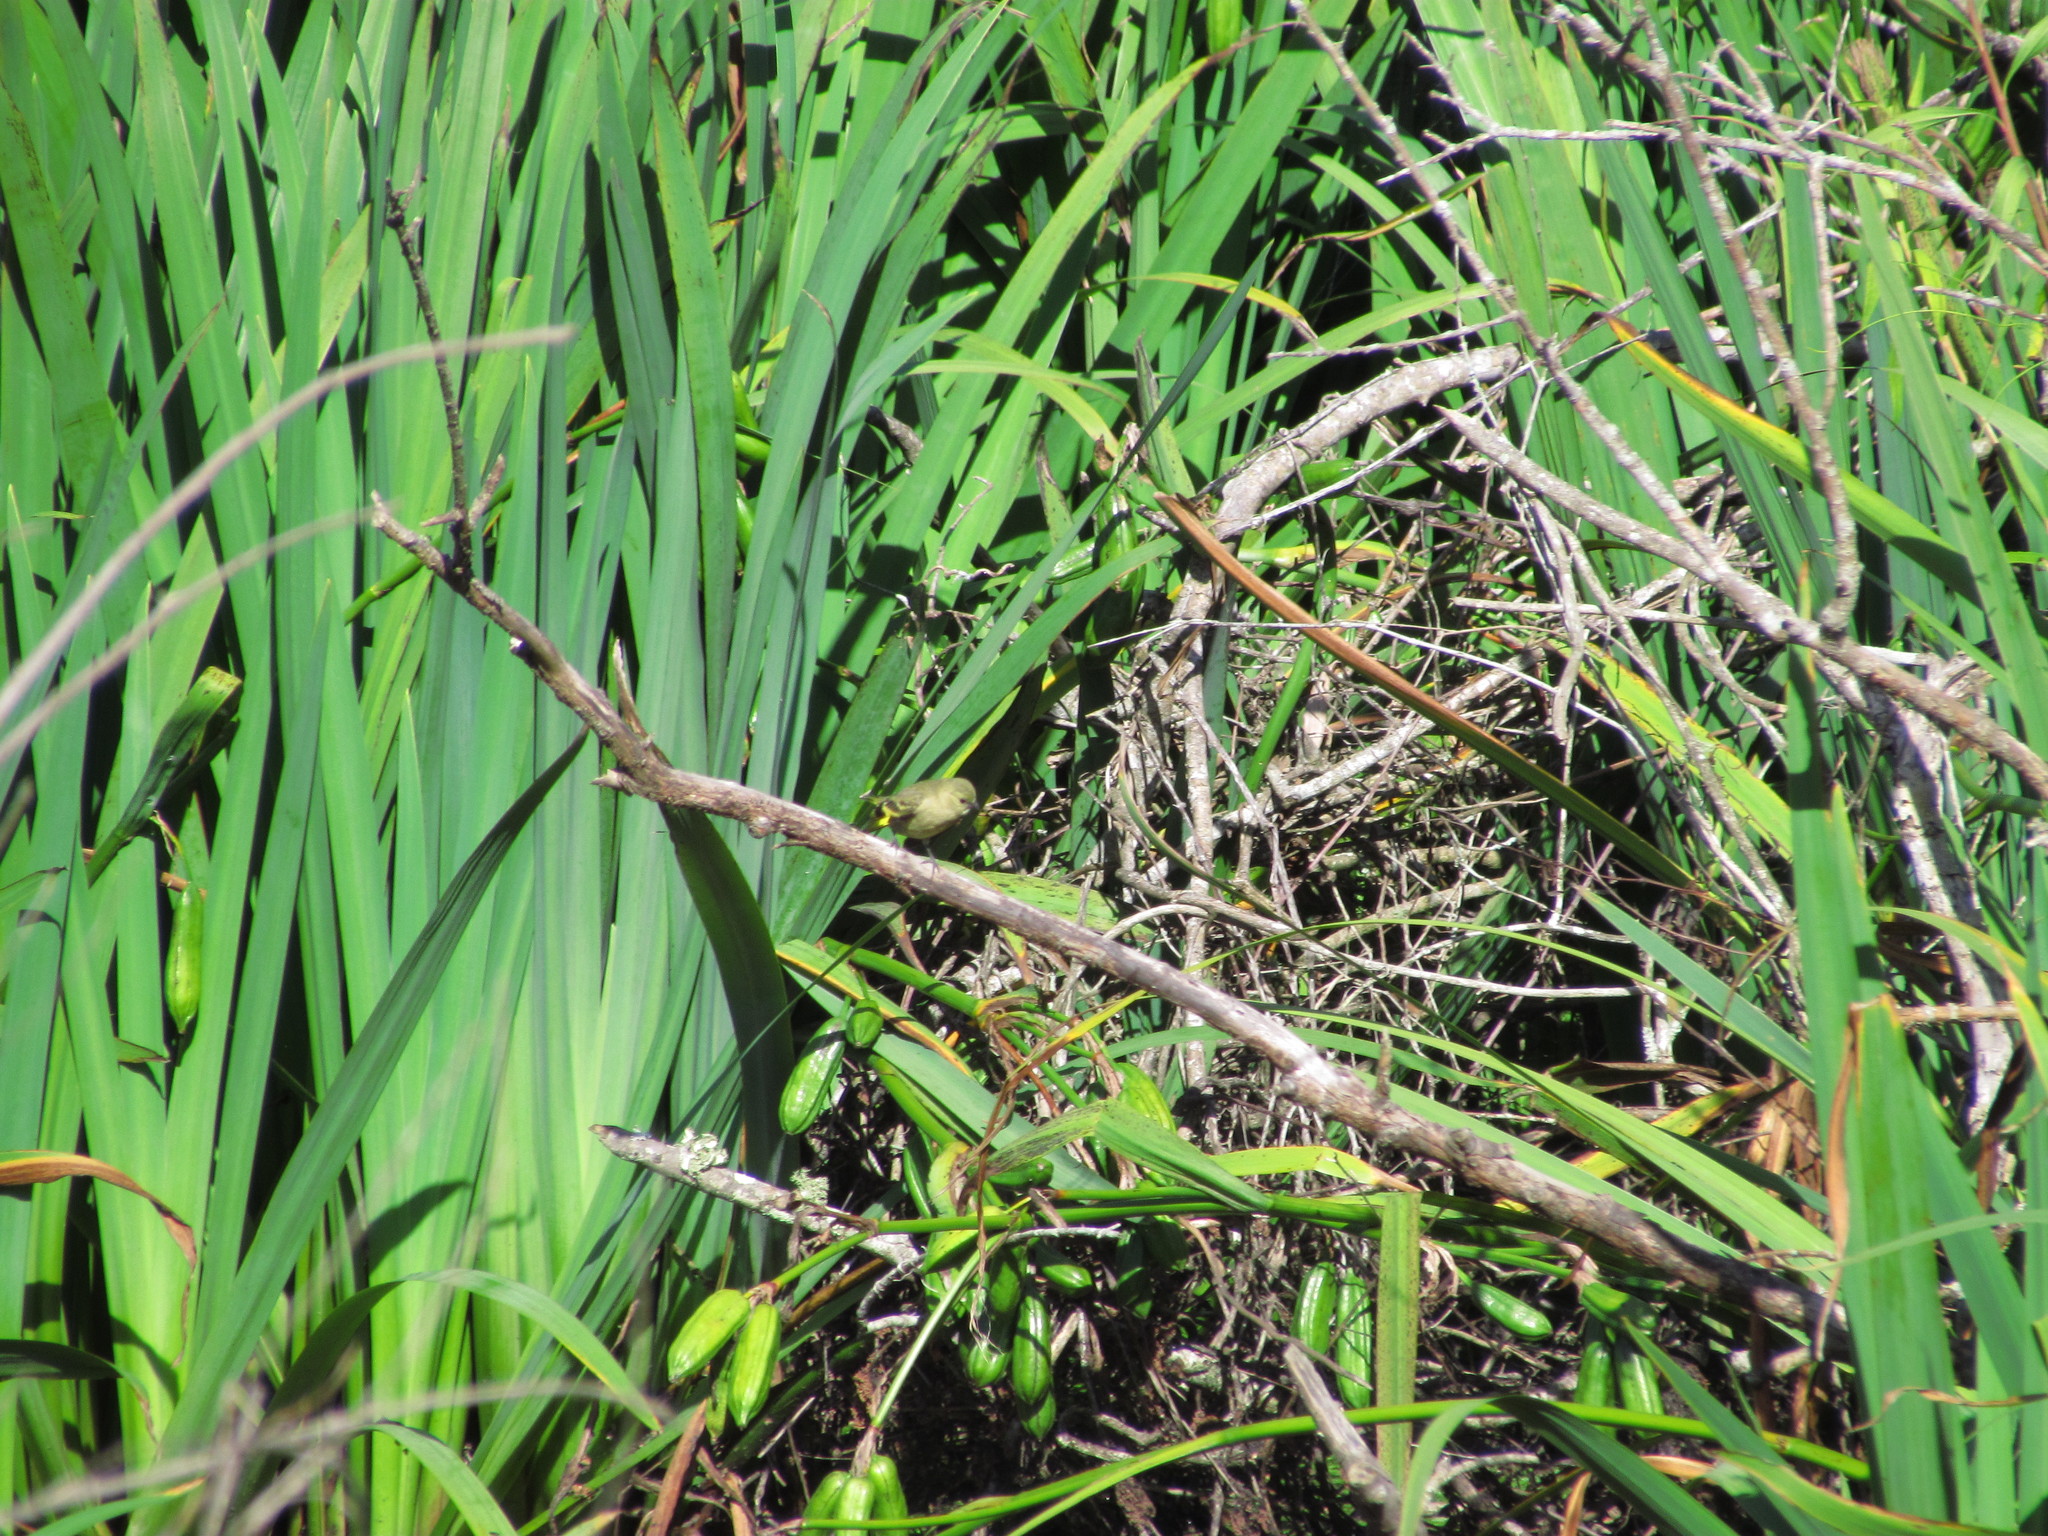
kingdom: Animalia
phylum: Chordata
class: Aves
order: Passeriformes
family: Fringillidae
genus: Spinus
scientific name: Spinus magellanicus
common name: Hooded siskin
